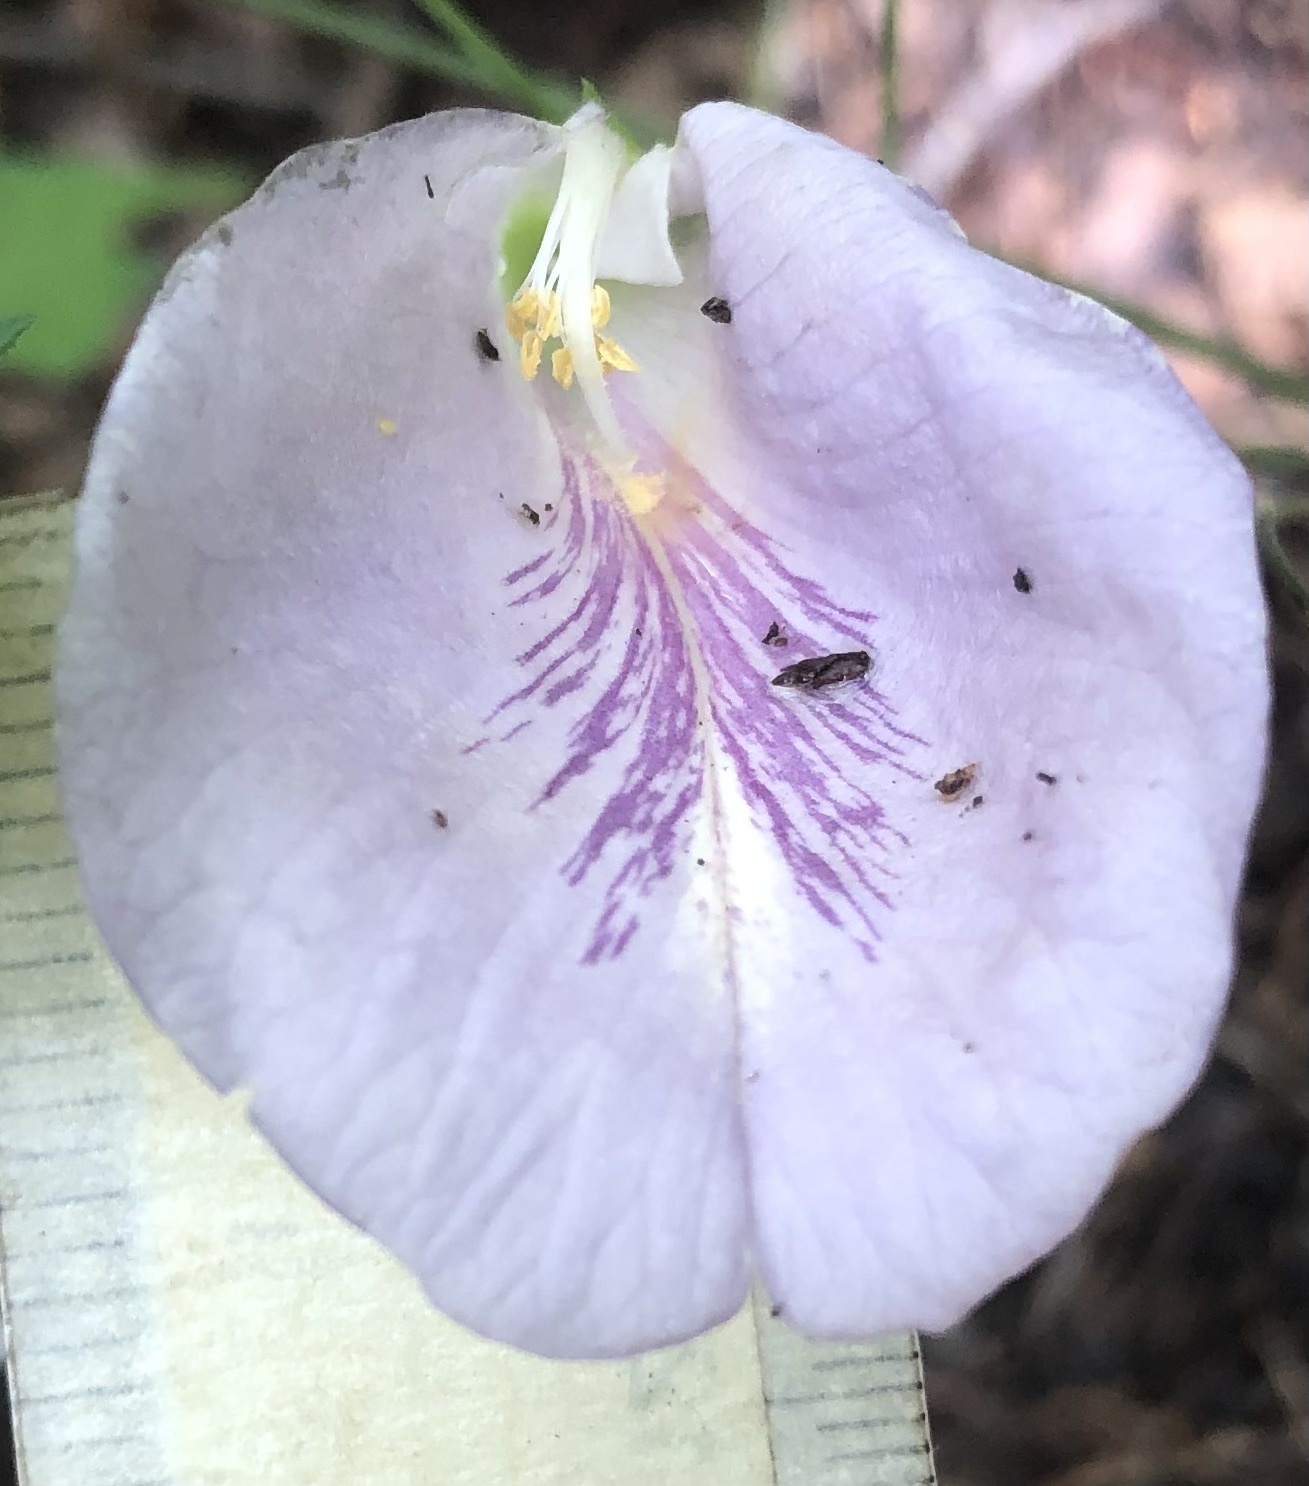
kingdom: Plantae
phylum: Tracheophyta
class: Magnoliopsida
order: Fabales
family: Fabaceae
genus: Clitoria
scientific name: Clitoria mariana
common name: Butterfly-pea
